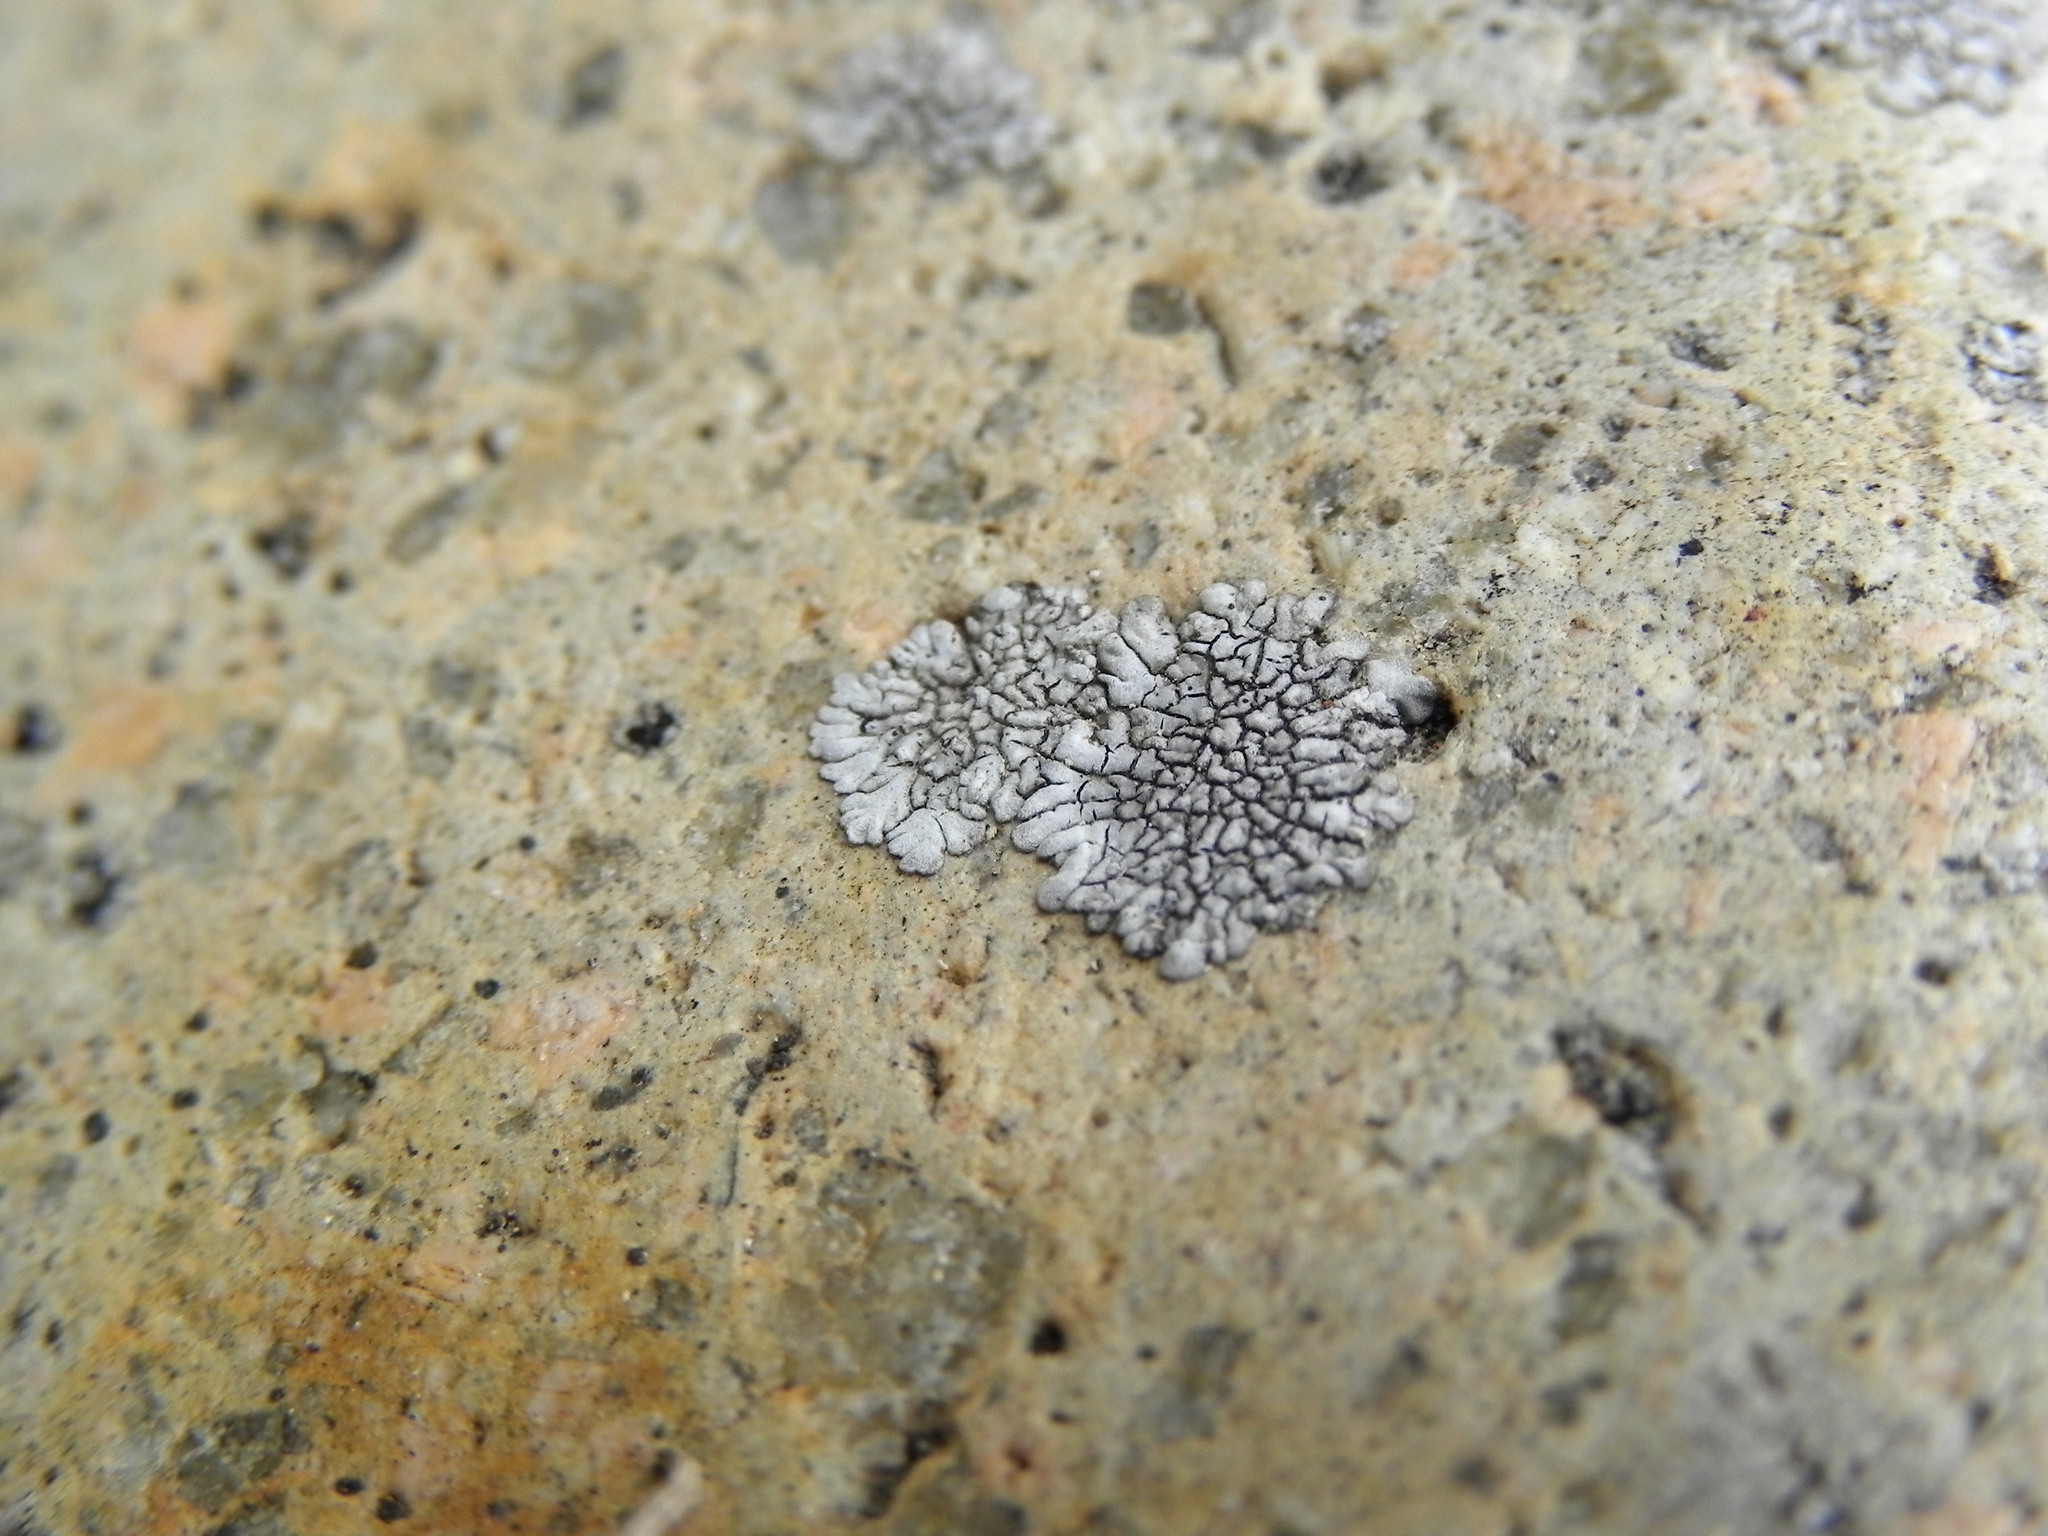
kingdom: Fungi
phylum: Ascomycota
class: Lecanoromycetes
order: Caliciales
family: Caliciaceae
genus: Dimelaena
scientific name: Dimelaena radiata
